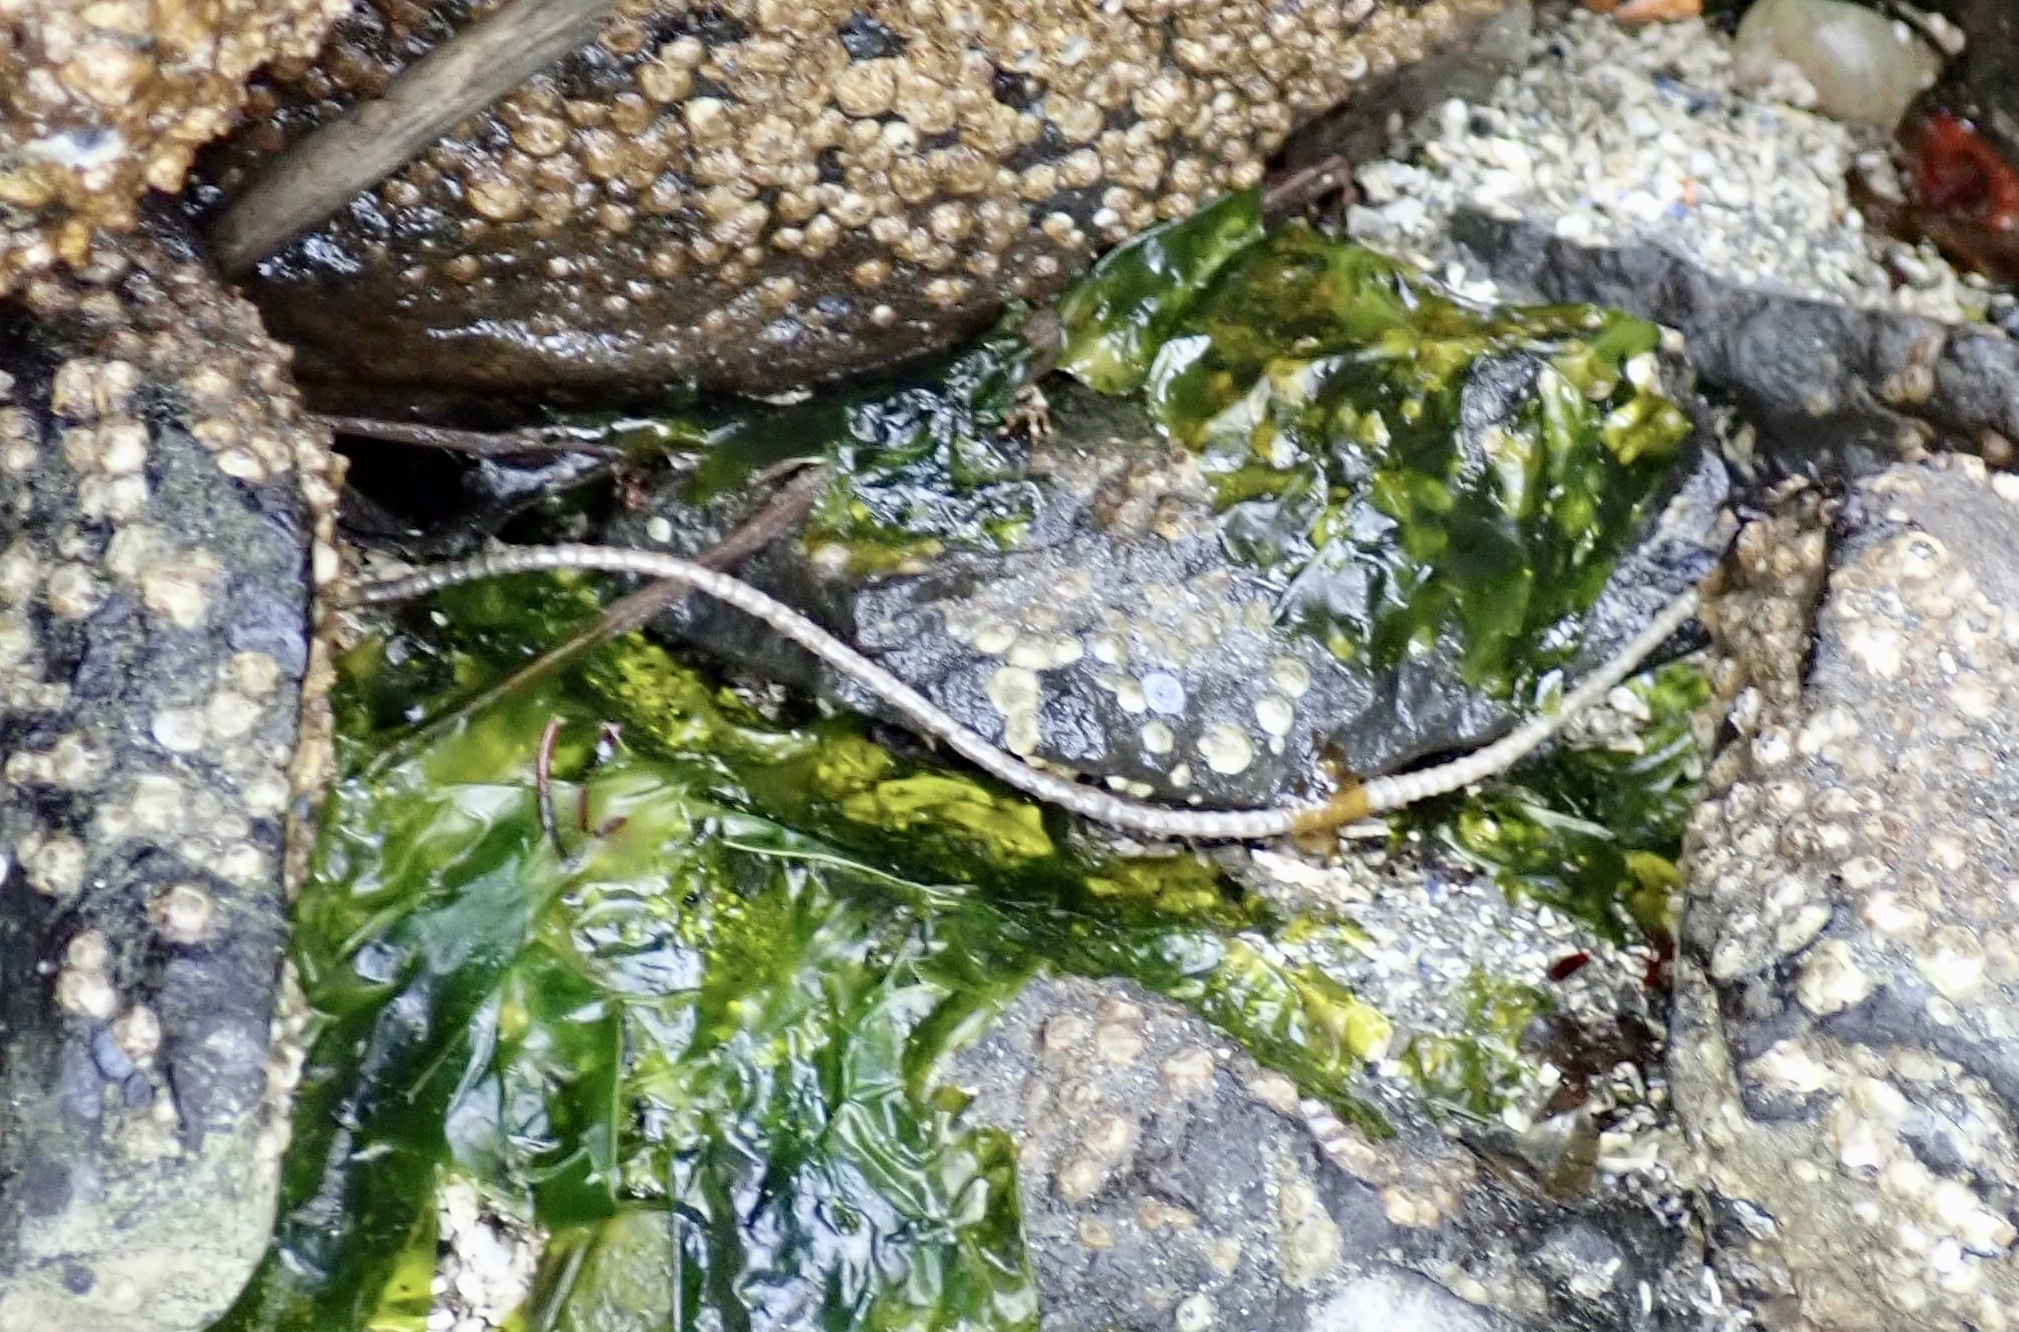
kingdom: Animalia
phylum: Annelida
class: Polychaeta
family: Chaetopteridae
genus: Spiochaetopterus
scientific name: Spiochaetopterus costarum
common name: Glassy tubeworm
